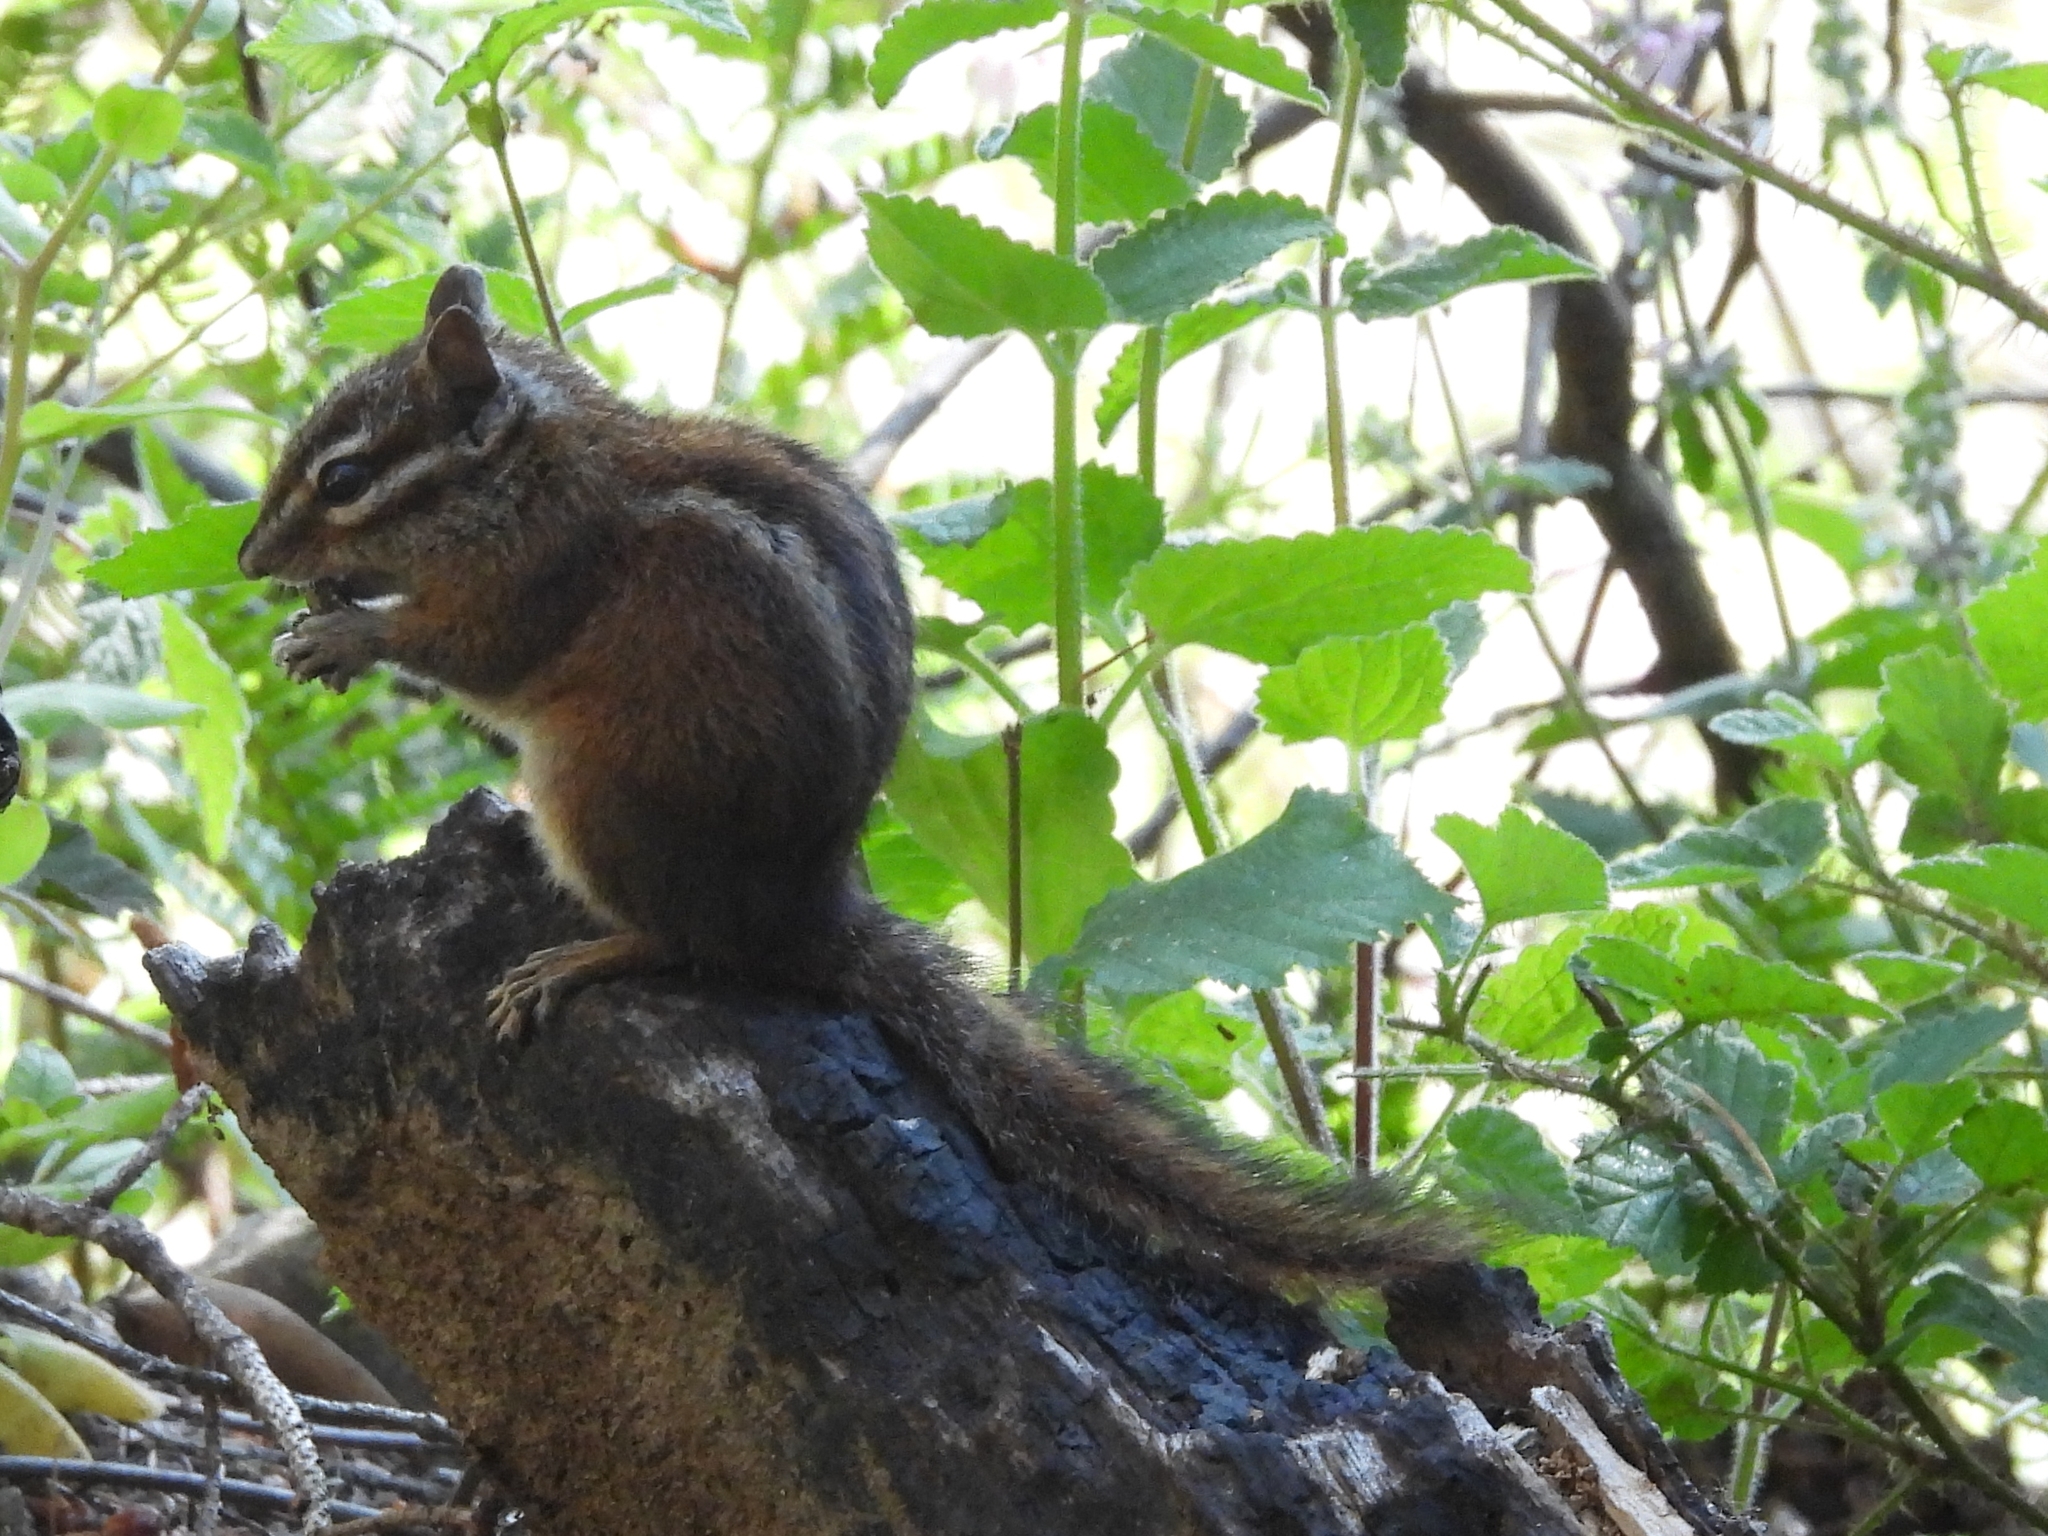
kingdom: Animalia
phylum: Chordata
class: Mammalia
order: Rodentia
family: Sciuridae
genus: Tamias
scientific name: Tamias sonomae
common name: Sonoma chipmunk
